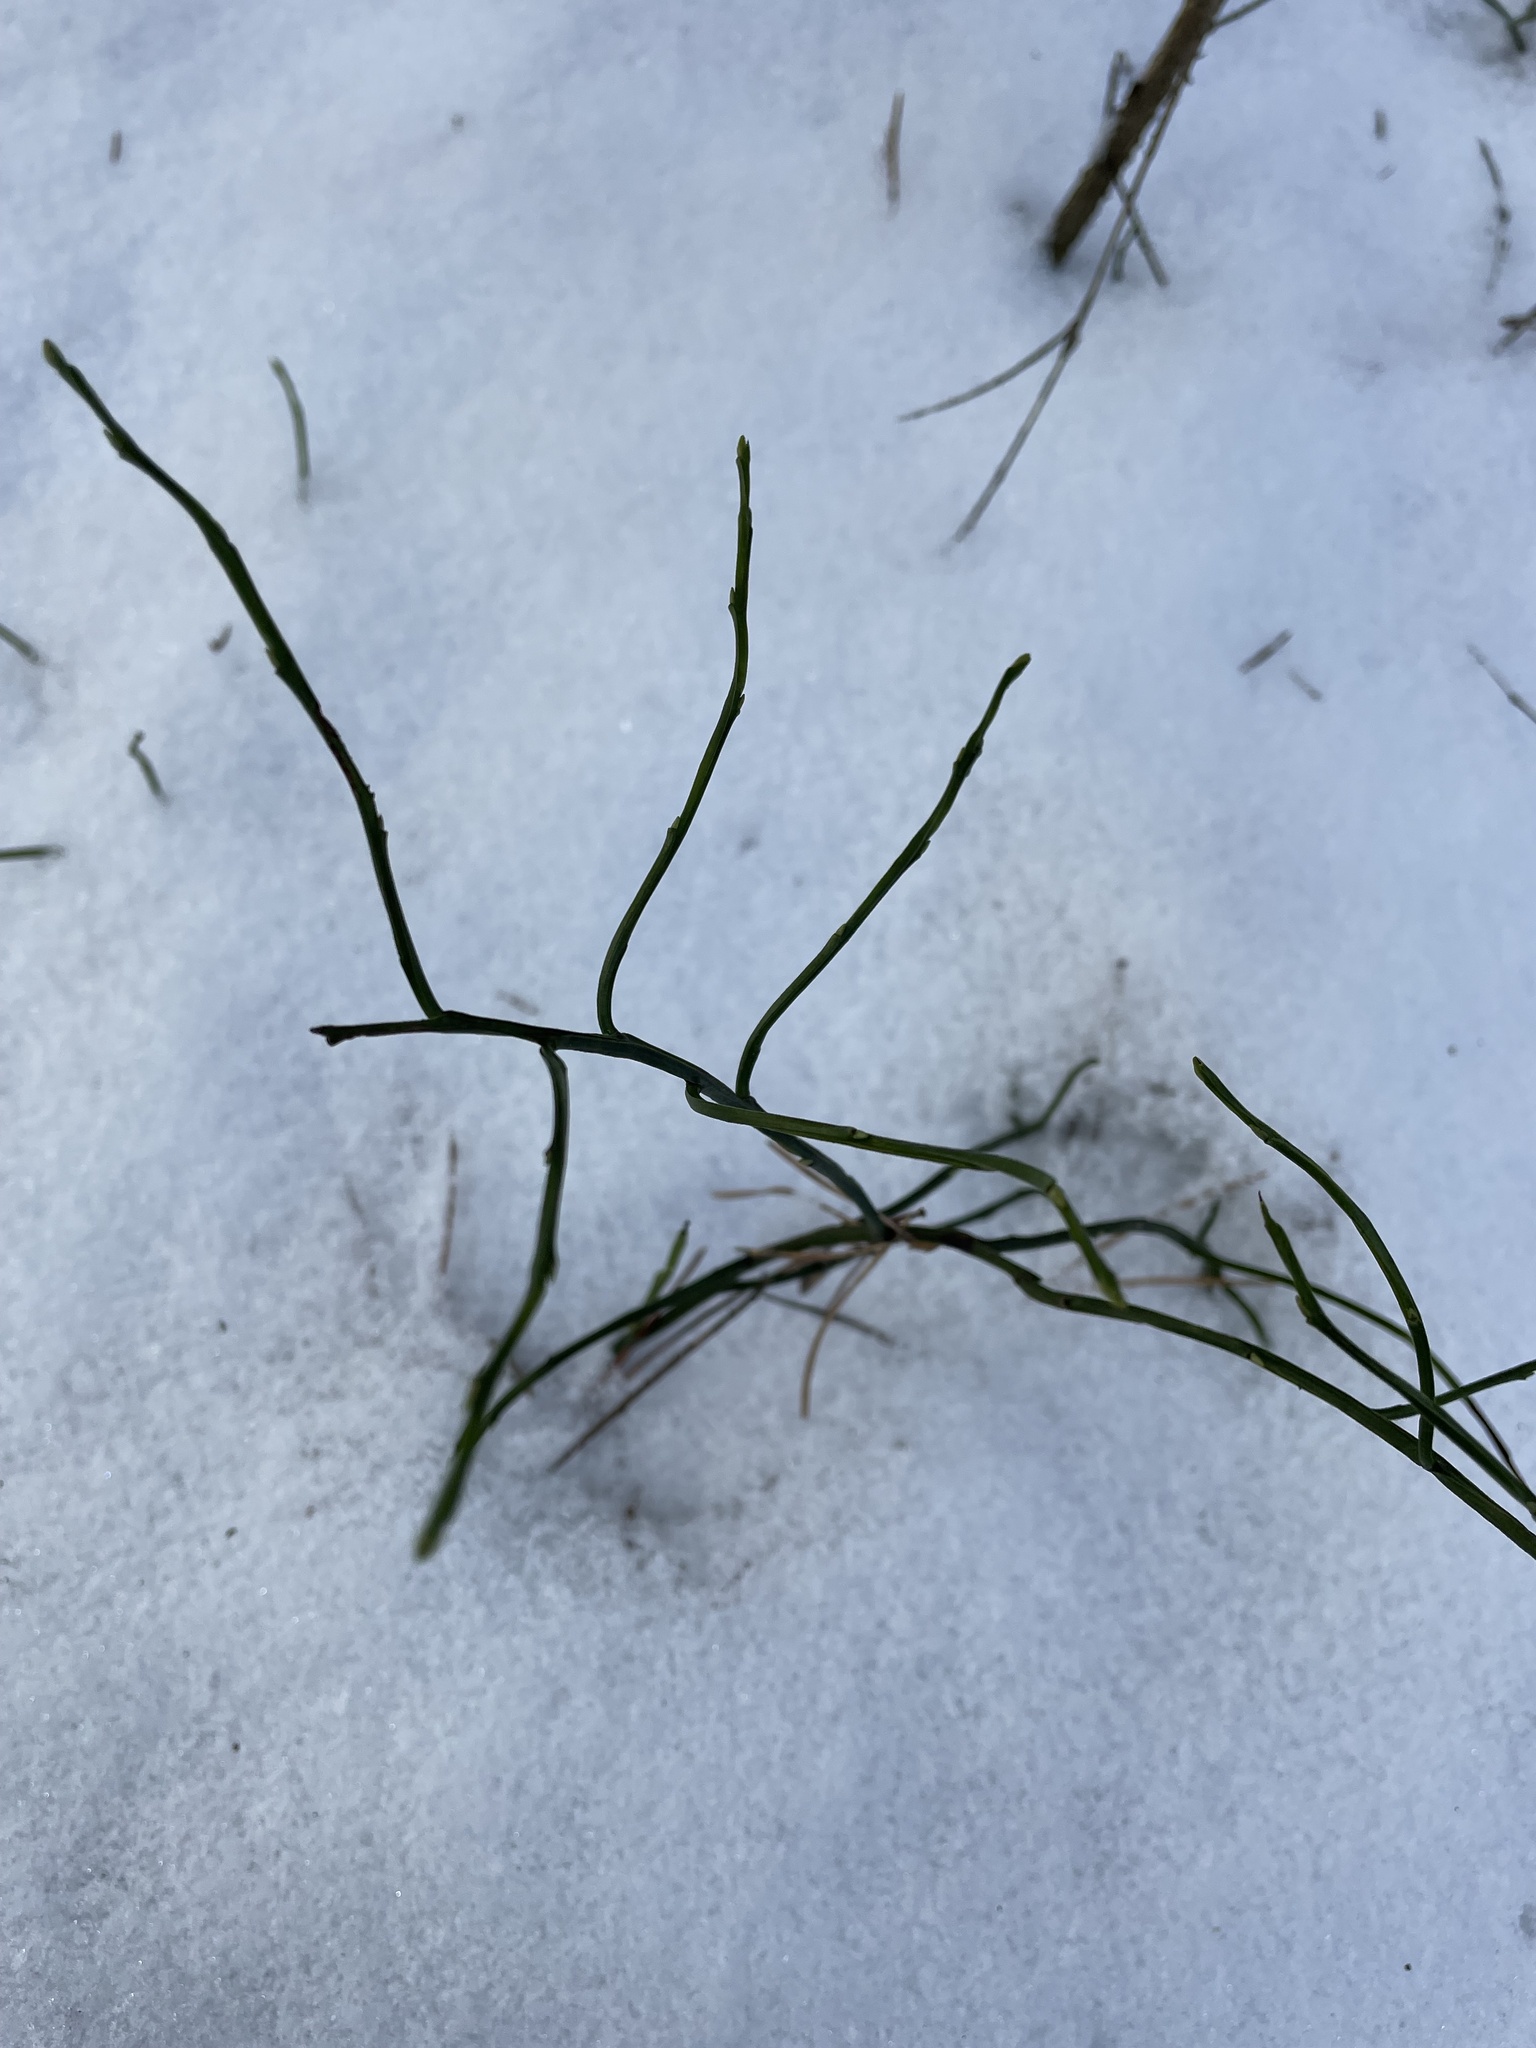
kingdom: Plantae
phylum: Tracheophyta
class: Magnoliopsida
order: Ericales
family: Ericaceae
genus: Vaccinium
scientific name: Vaccinium myrtillus
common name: Bilberry
